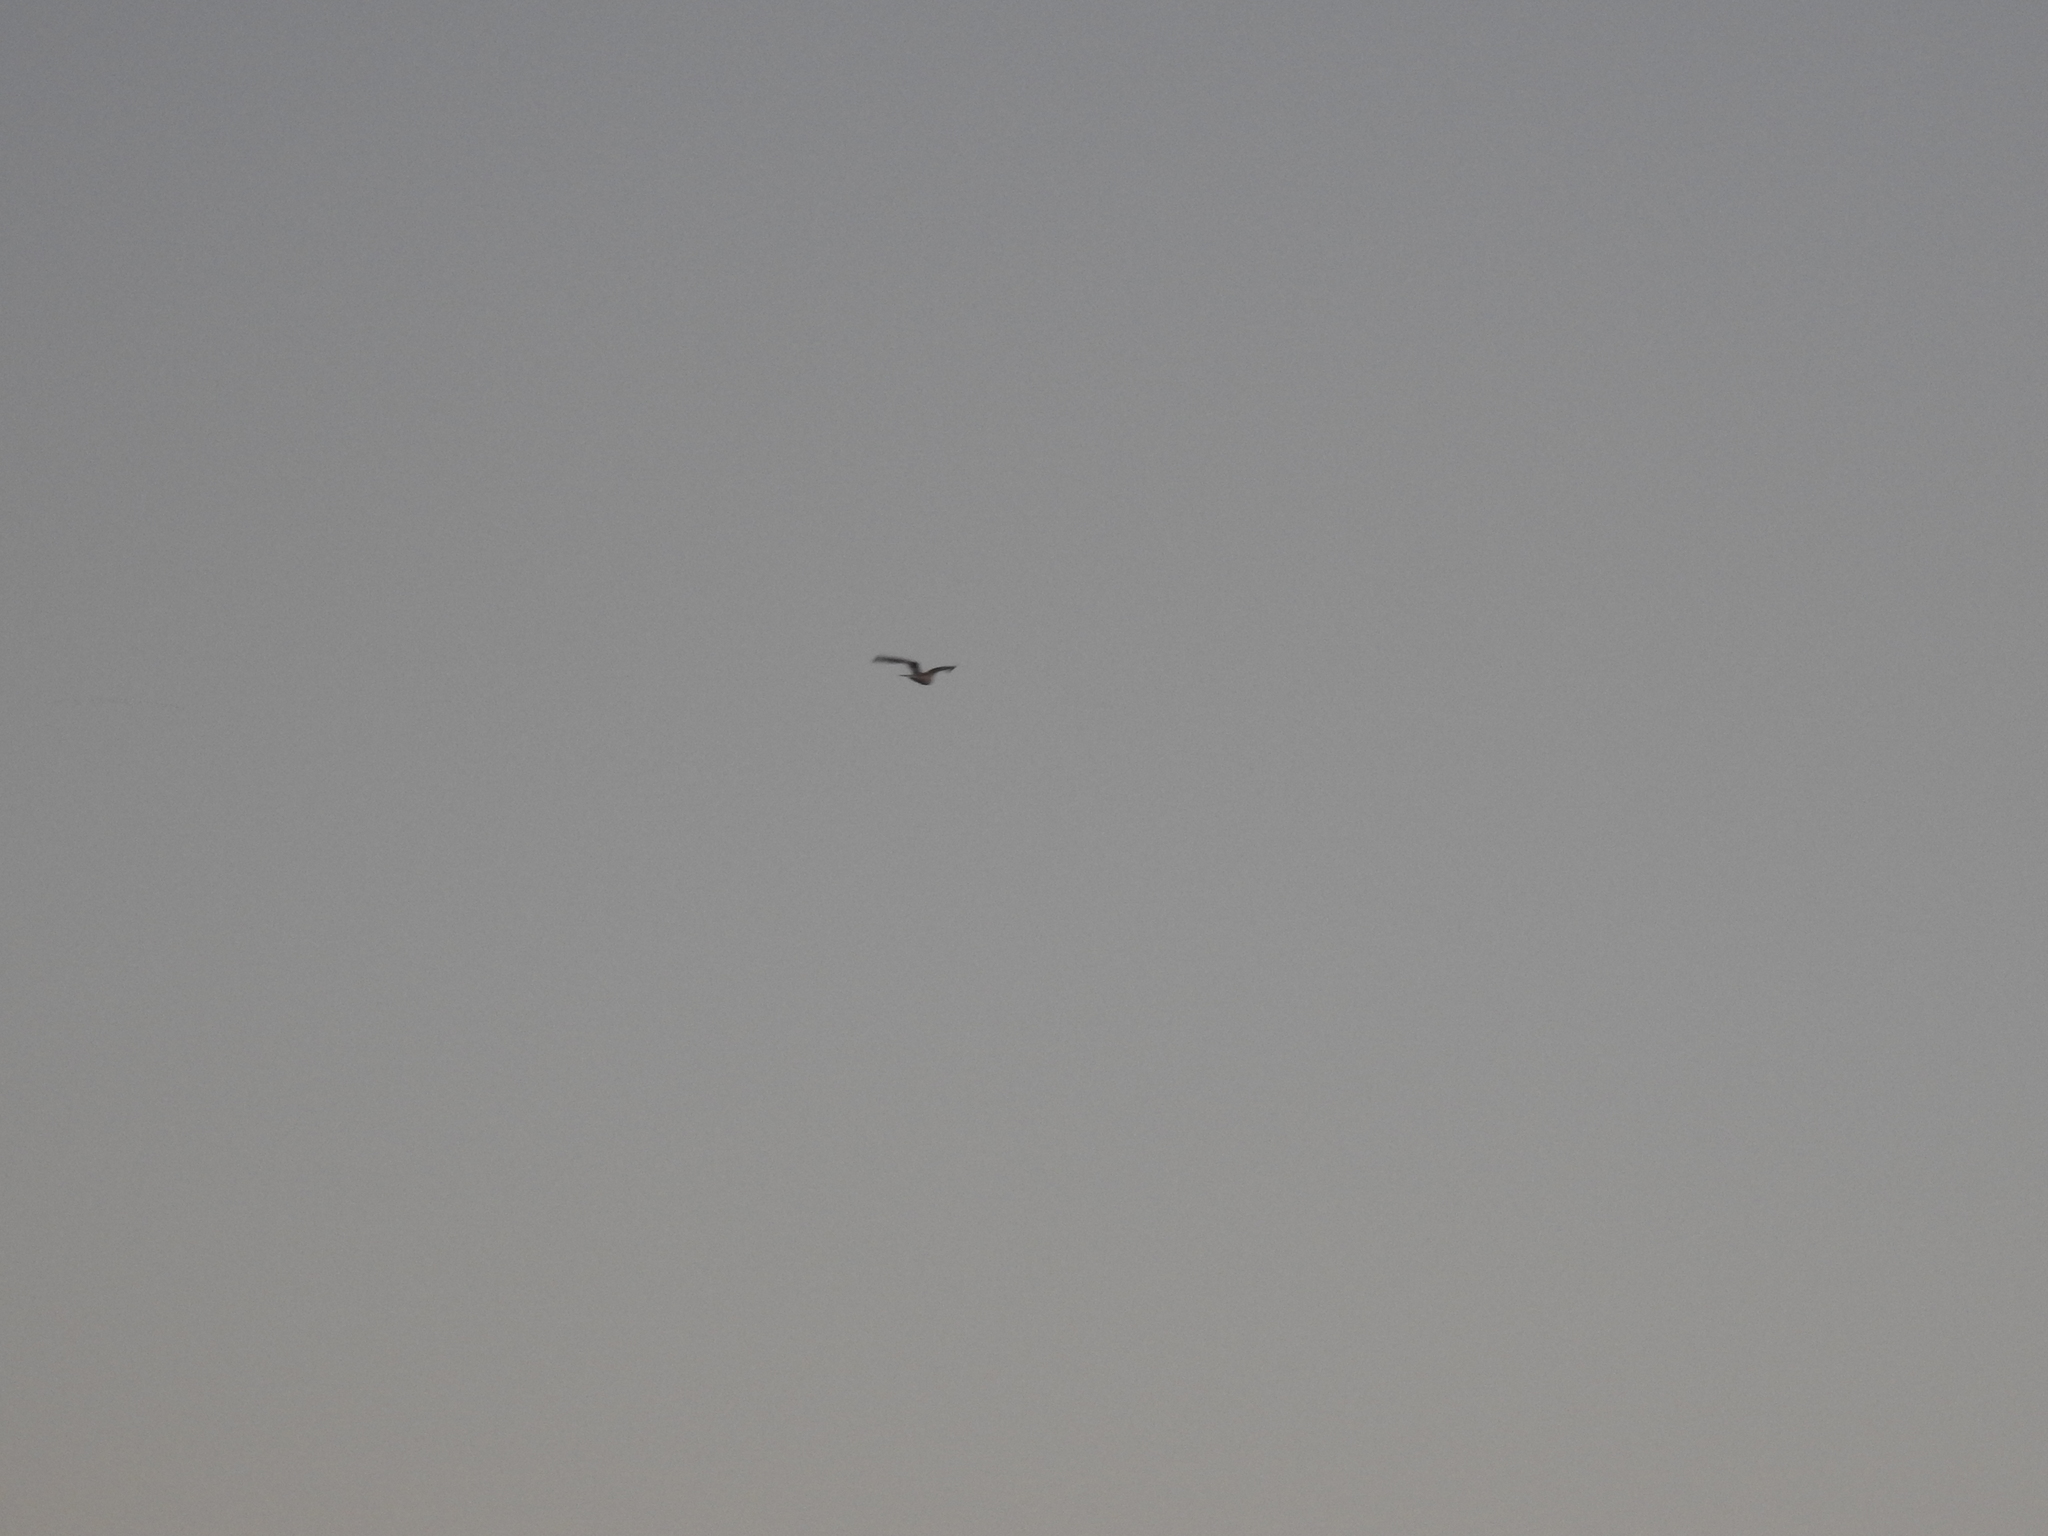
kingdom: Animalia
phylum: Chordata
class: Aves
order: Accipitriformes
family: Accipitridae
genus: Elanus
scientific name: Elanus leucurus
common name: White-tailed kite
